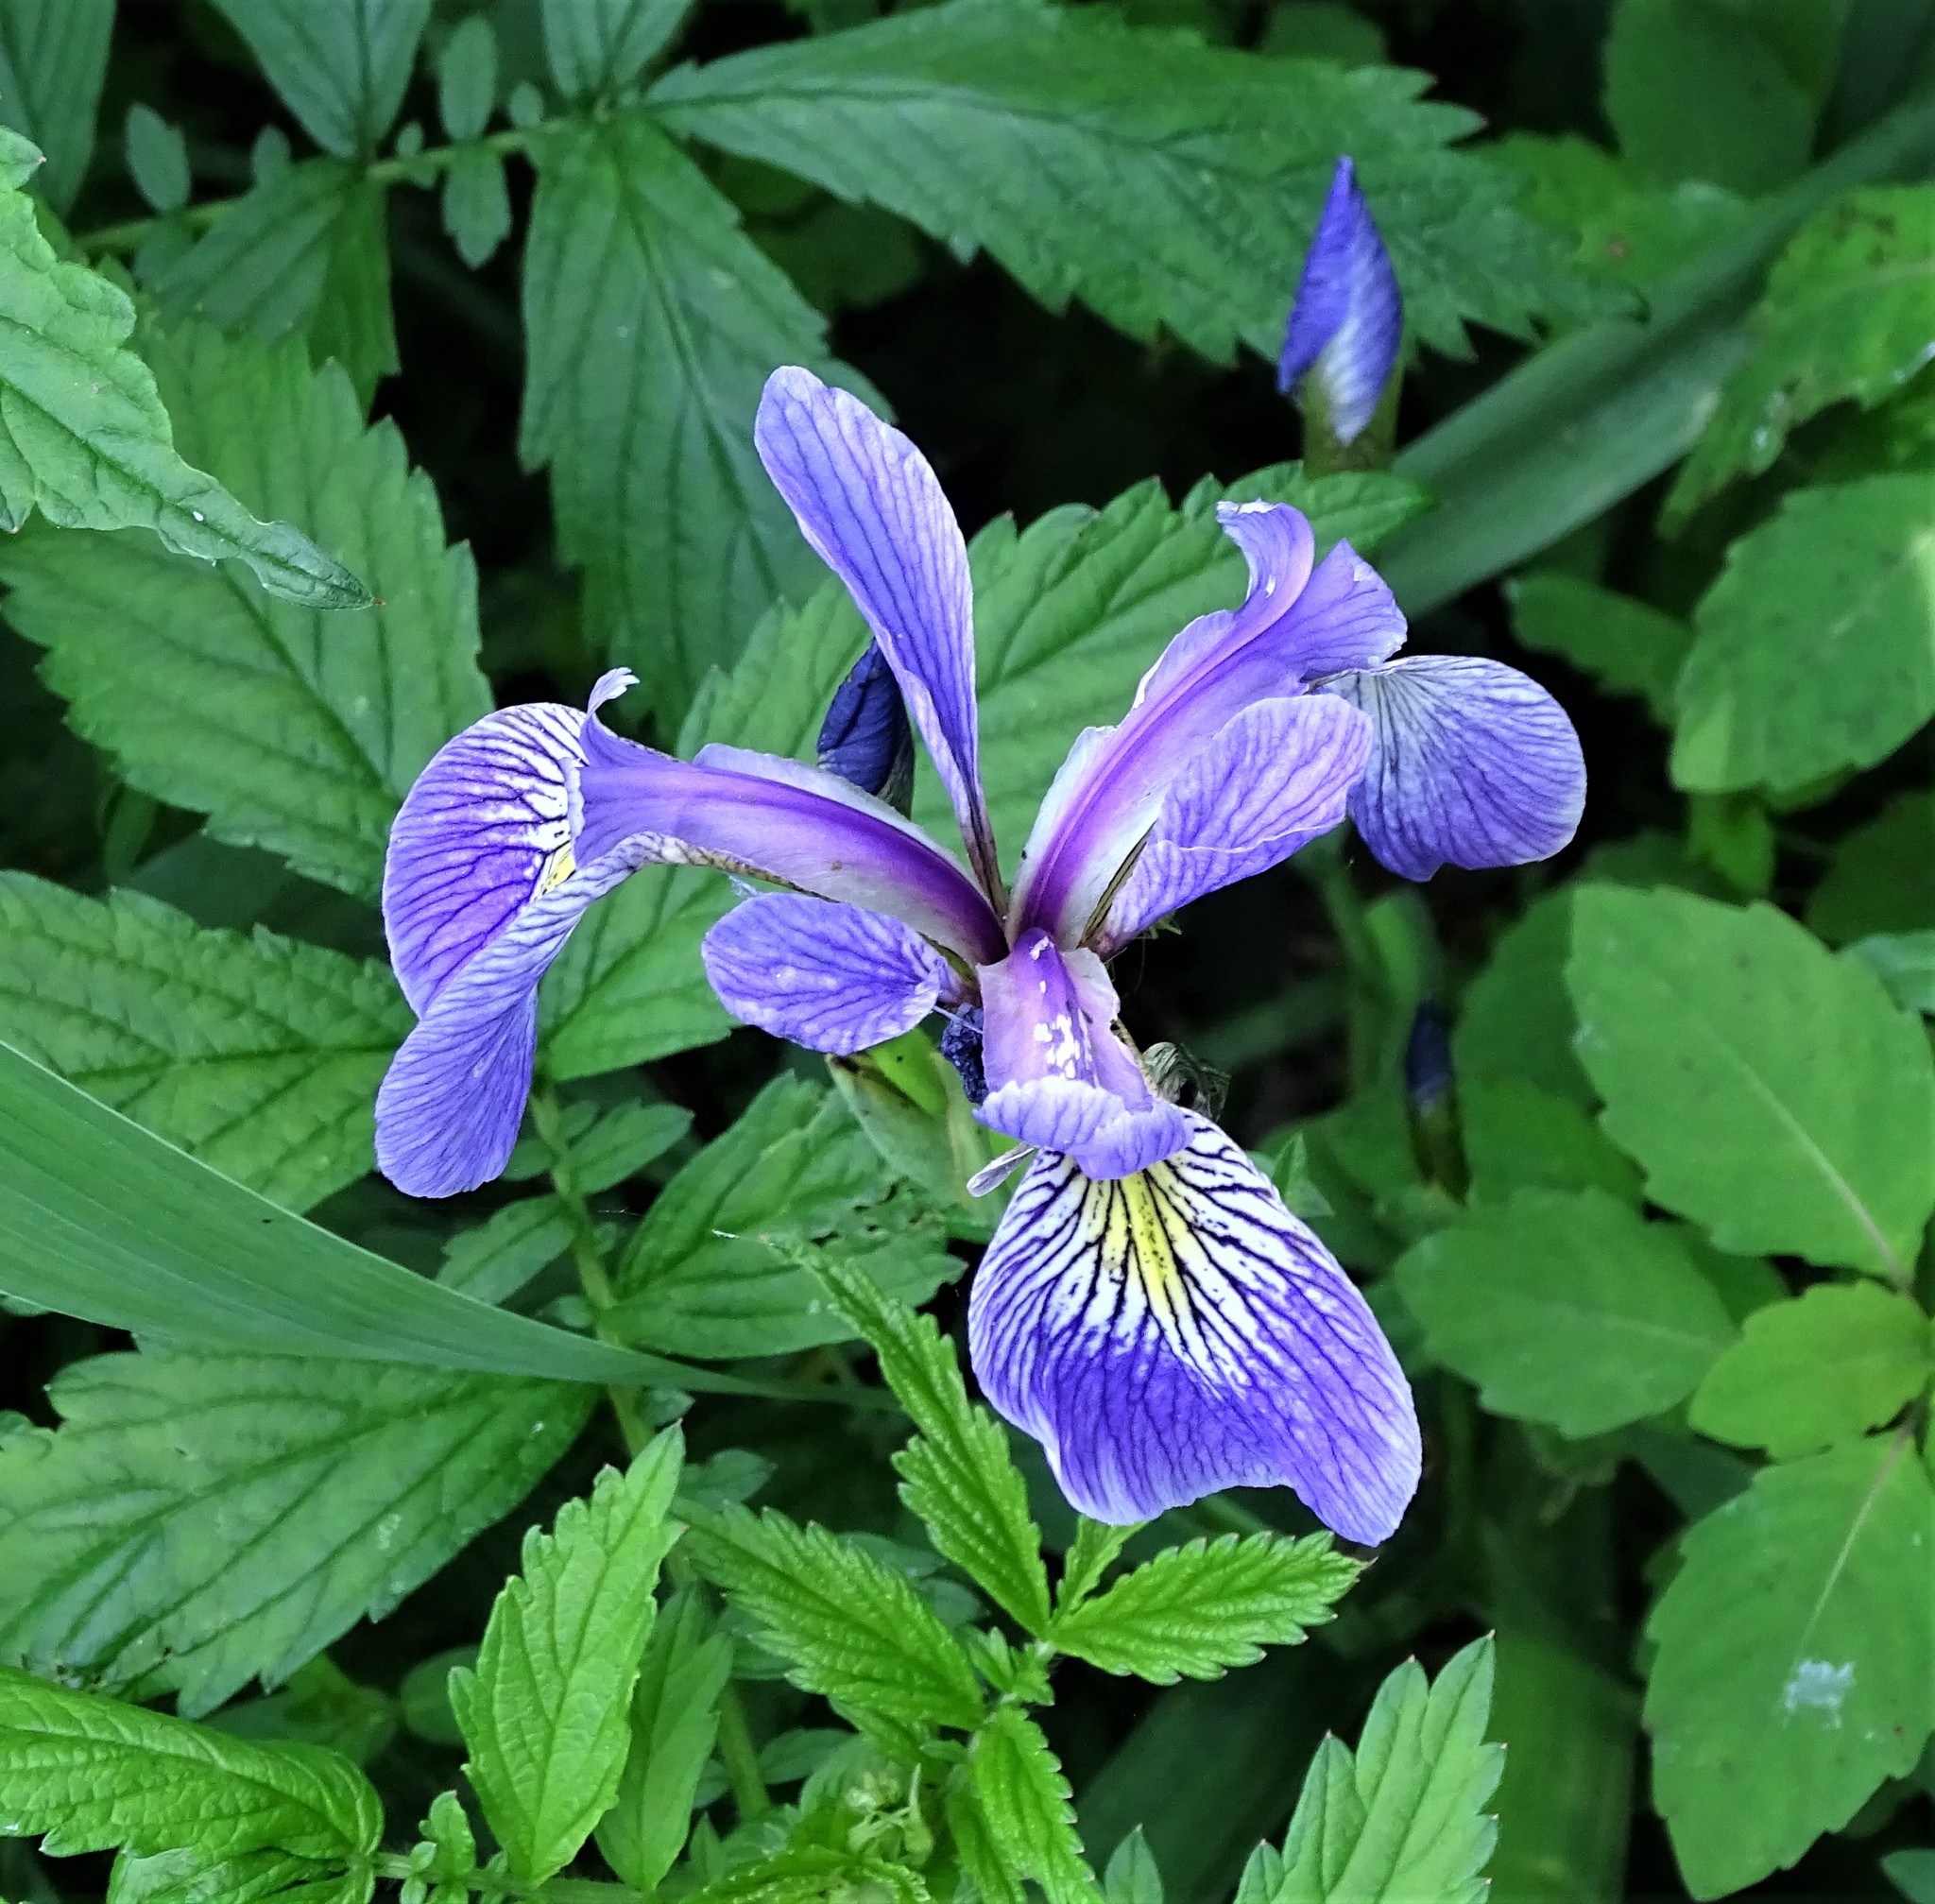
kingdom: Plantae
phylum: Tracheophyta
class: Liliopsida
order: Asparagales
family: Iridaceae
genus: Iris
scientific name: Iris versicolor
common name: Purple iris
